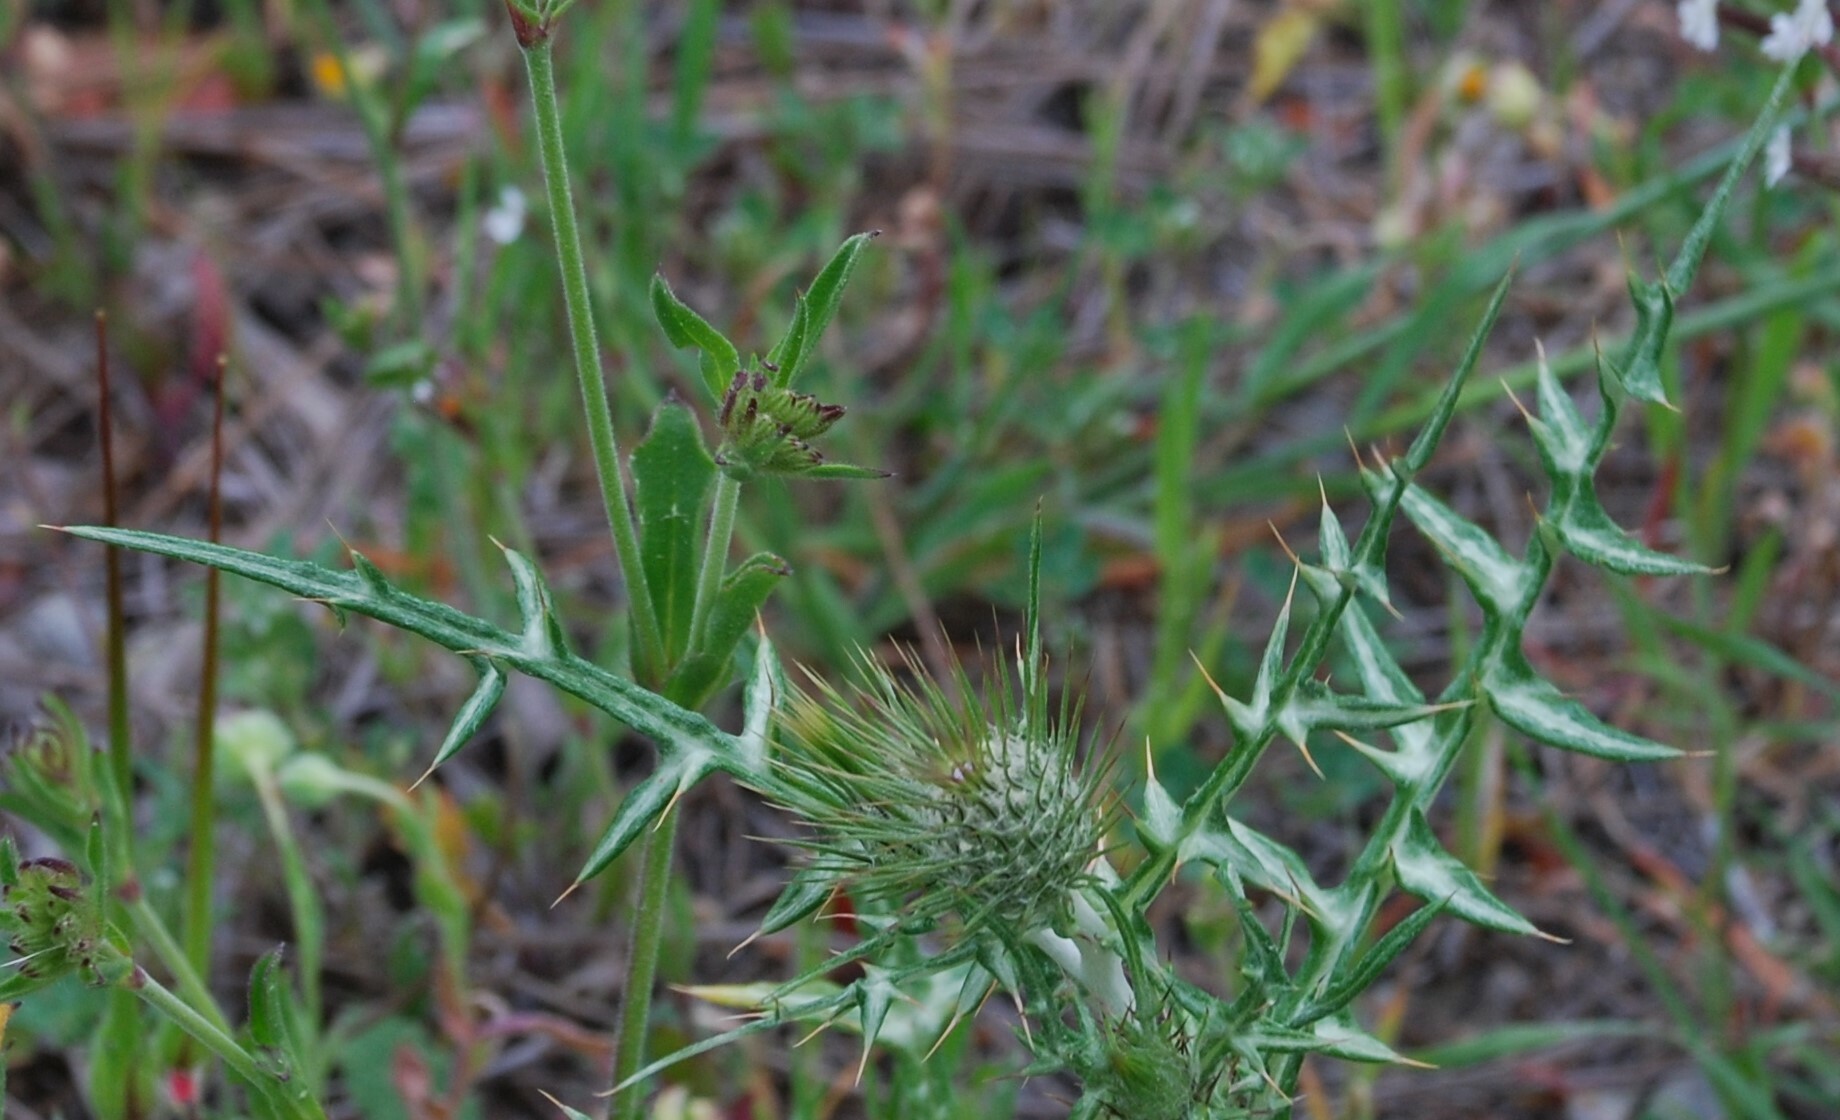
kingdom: Plantae
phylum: Tracheophyta
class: Magnoliopsida
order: Asterales
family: Asteraceae
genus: Galactites
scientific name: Galactites tomentosa
